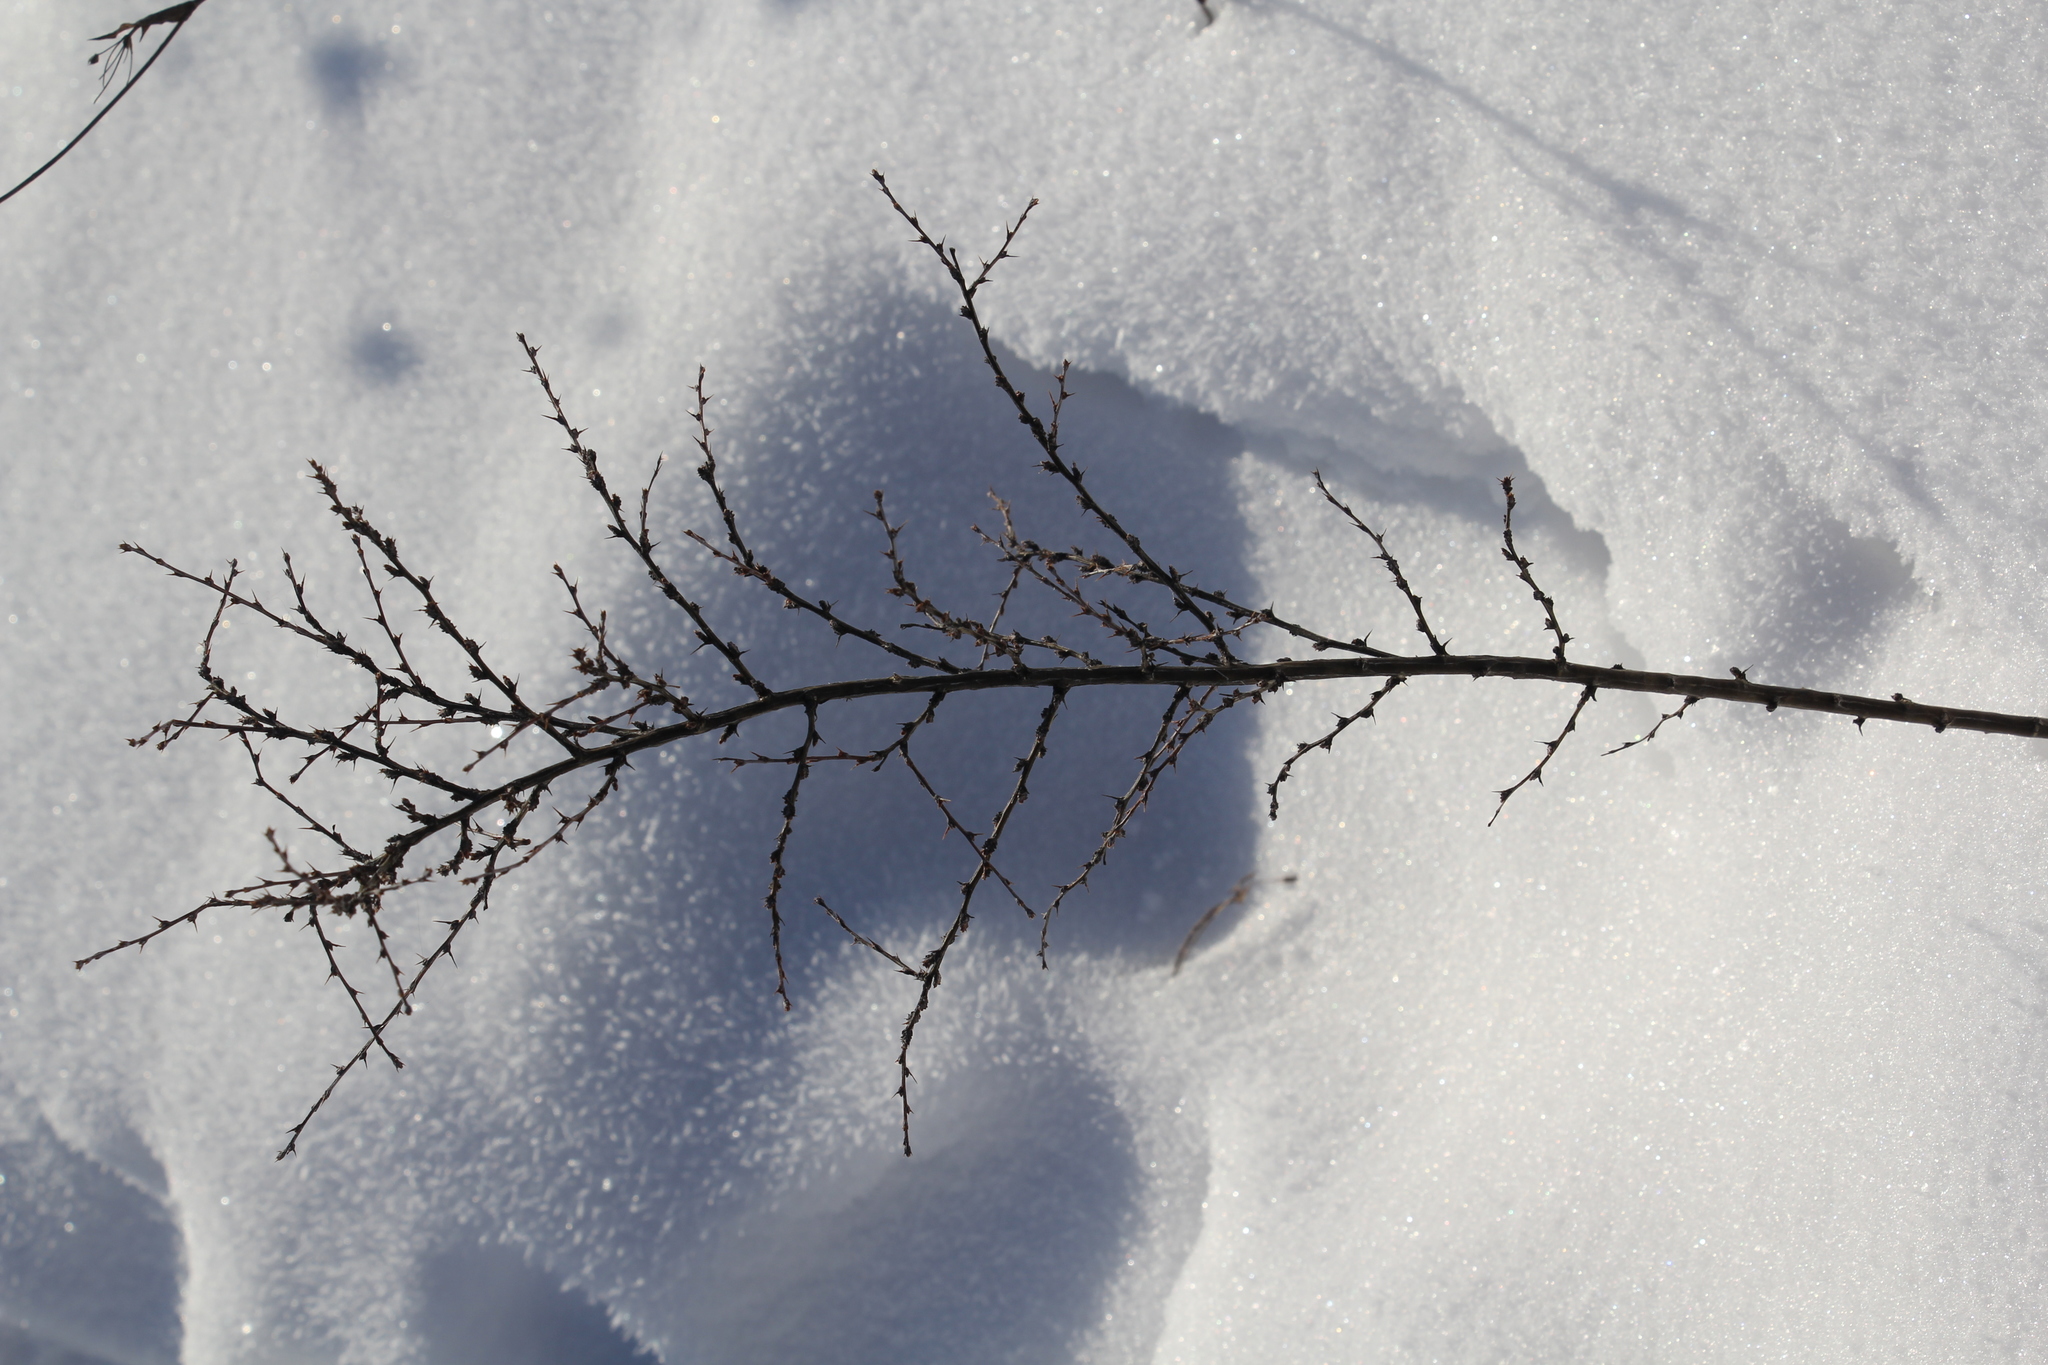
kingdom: Plantae
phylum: Tracheophyta
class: Magnoliopsida
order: Fabales
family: Fabaceae
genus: Caragana
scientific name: Caragana pygmaea
